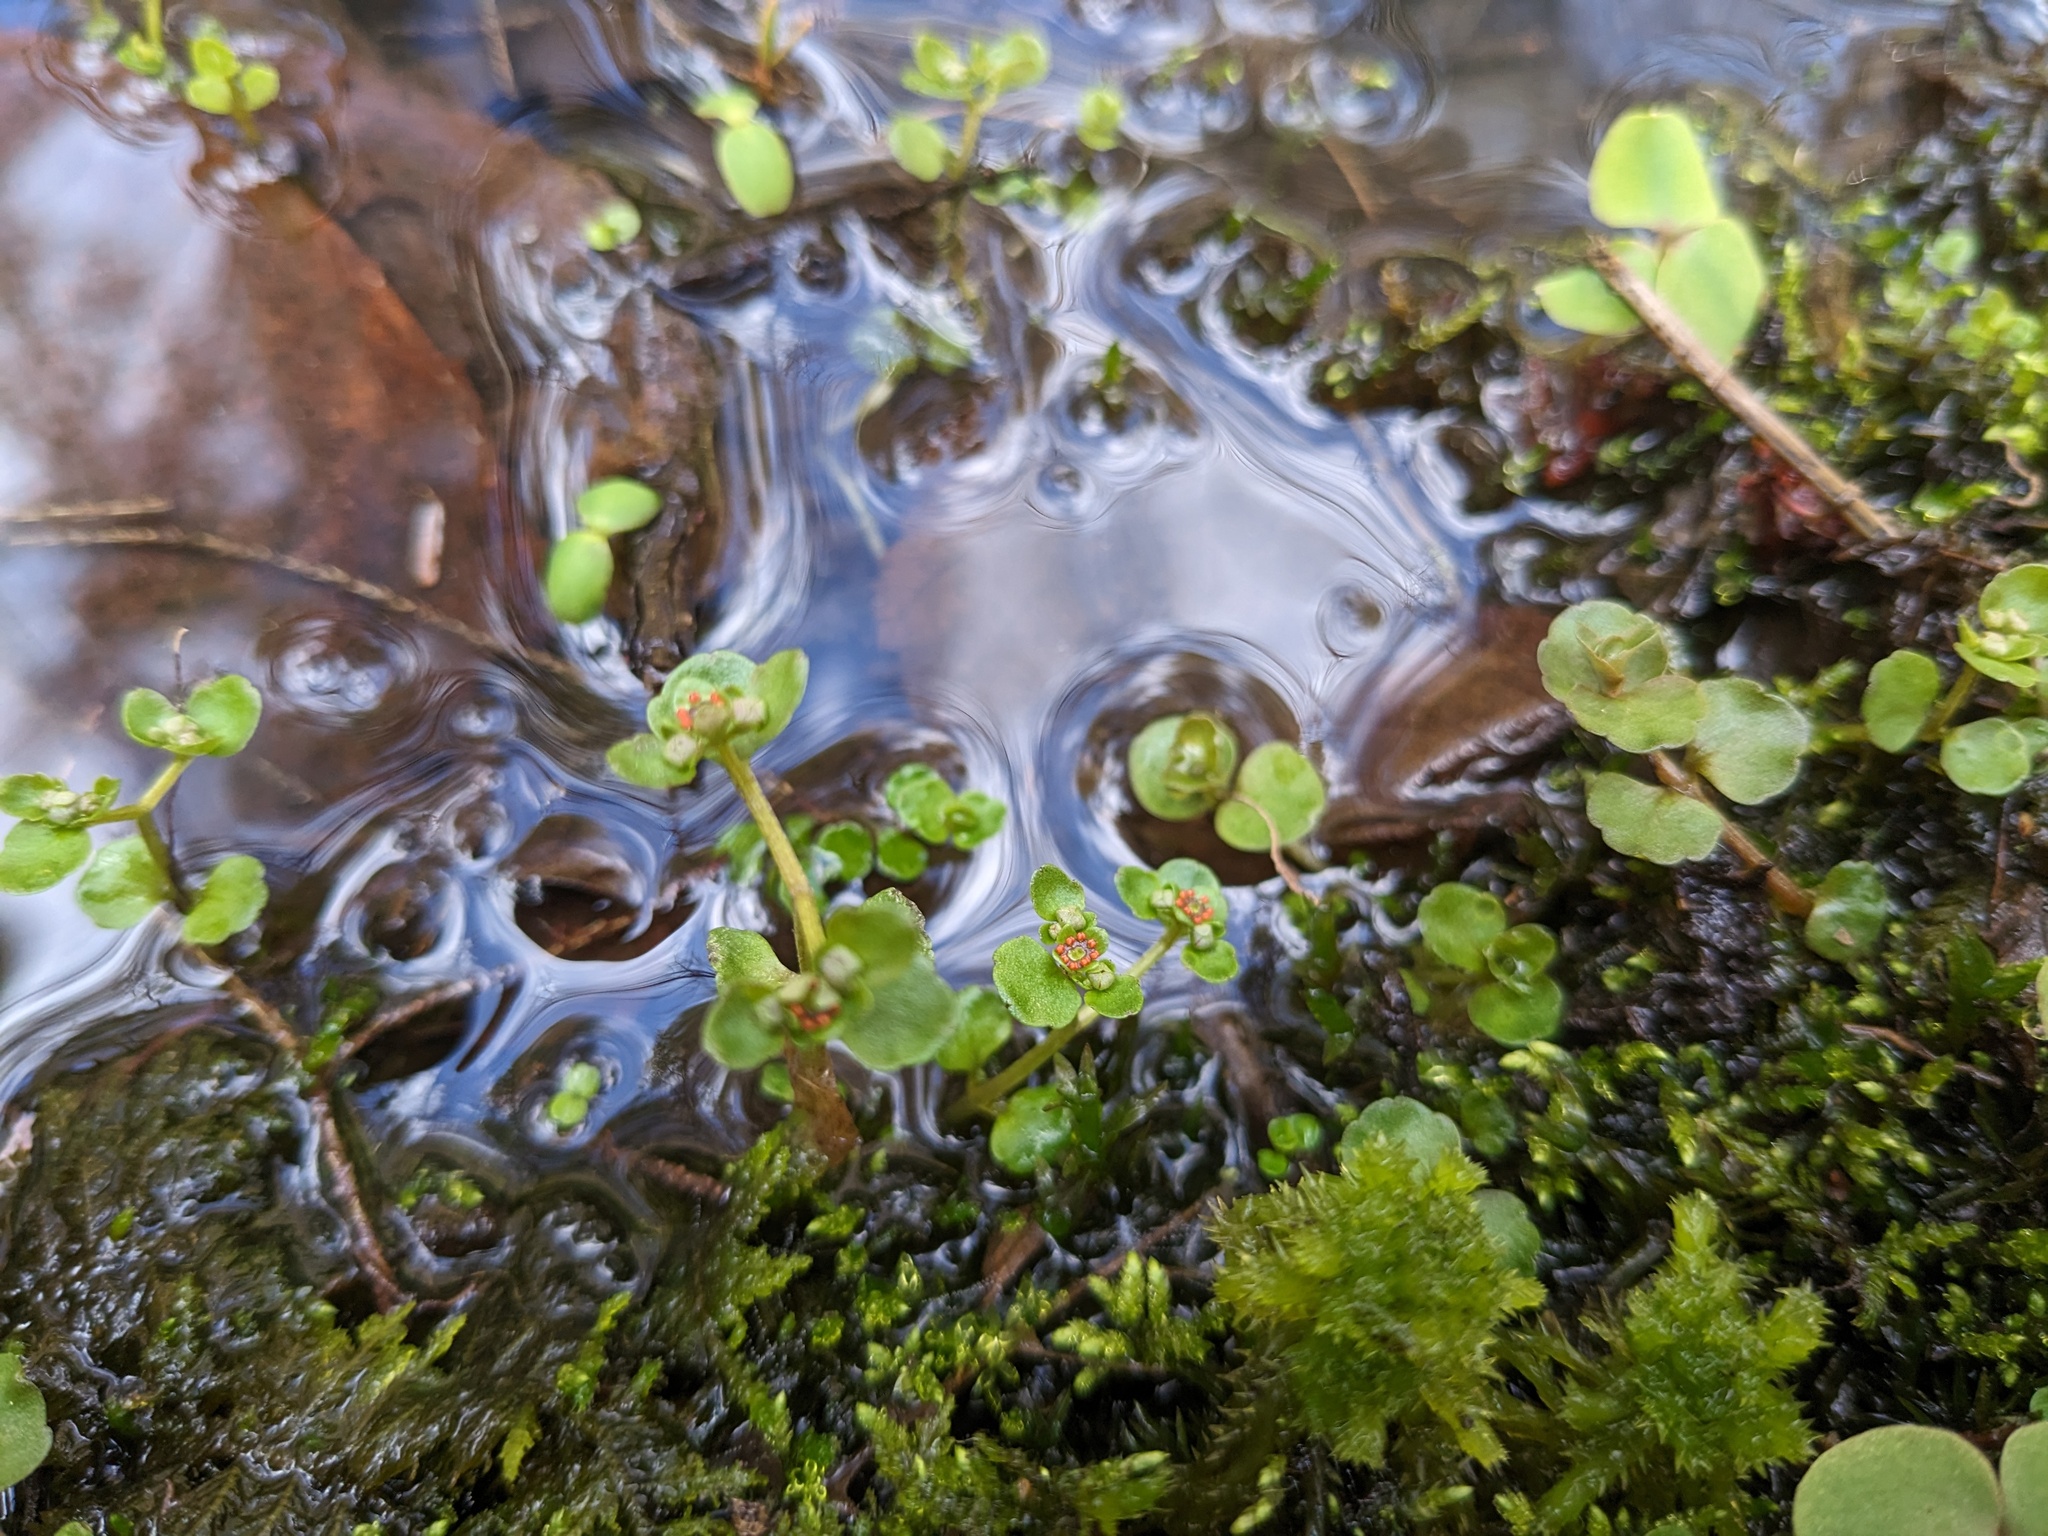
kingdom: Plantae
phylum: Tracheophyta
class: Magnoliopsida
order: Saxifragales
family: Saxifragaceae
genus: Chrysosplenium
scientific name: Chrysosplenium americanum
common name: American golden-saxifrage
